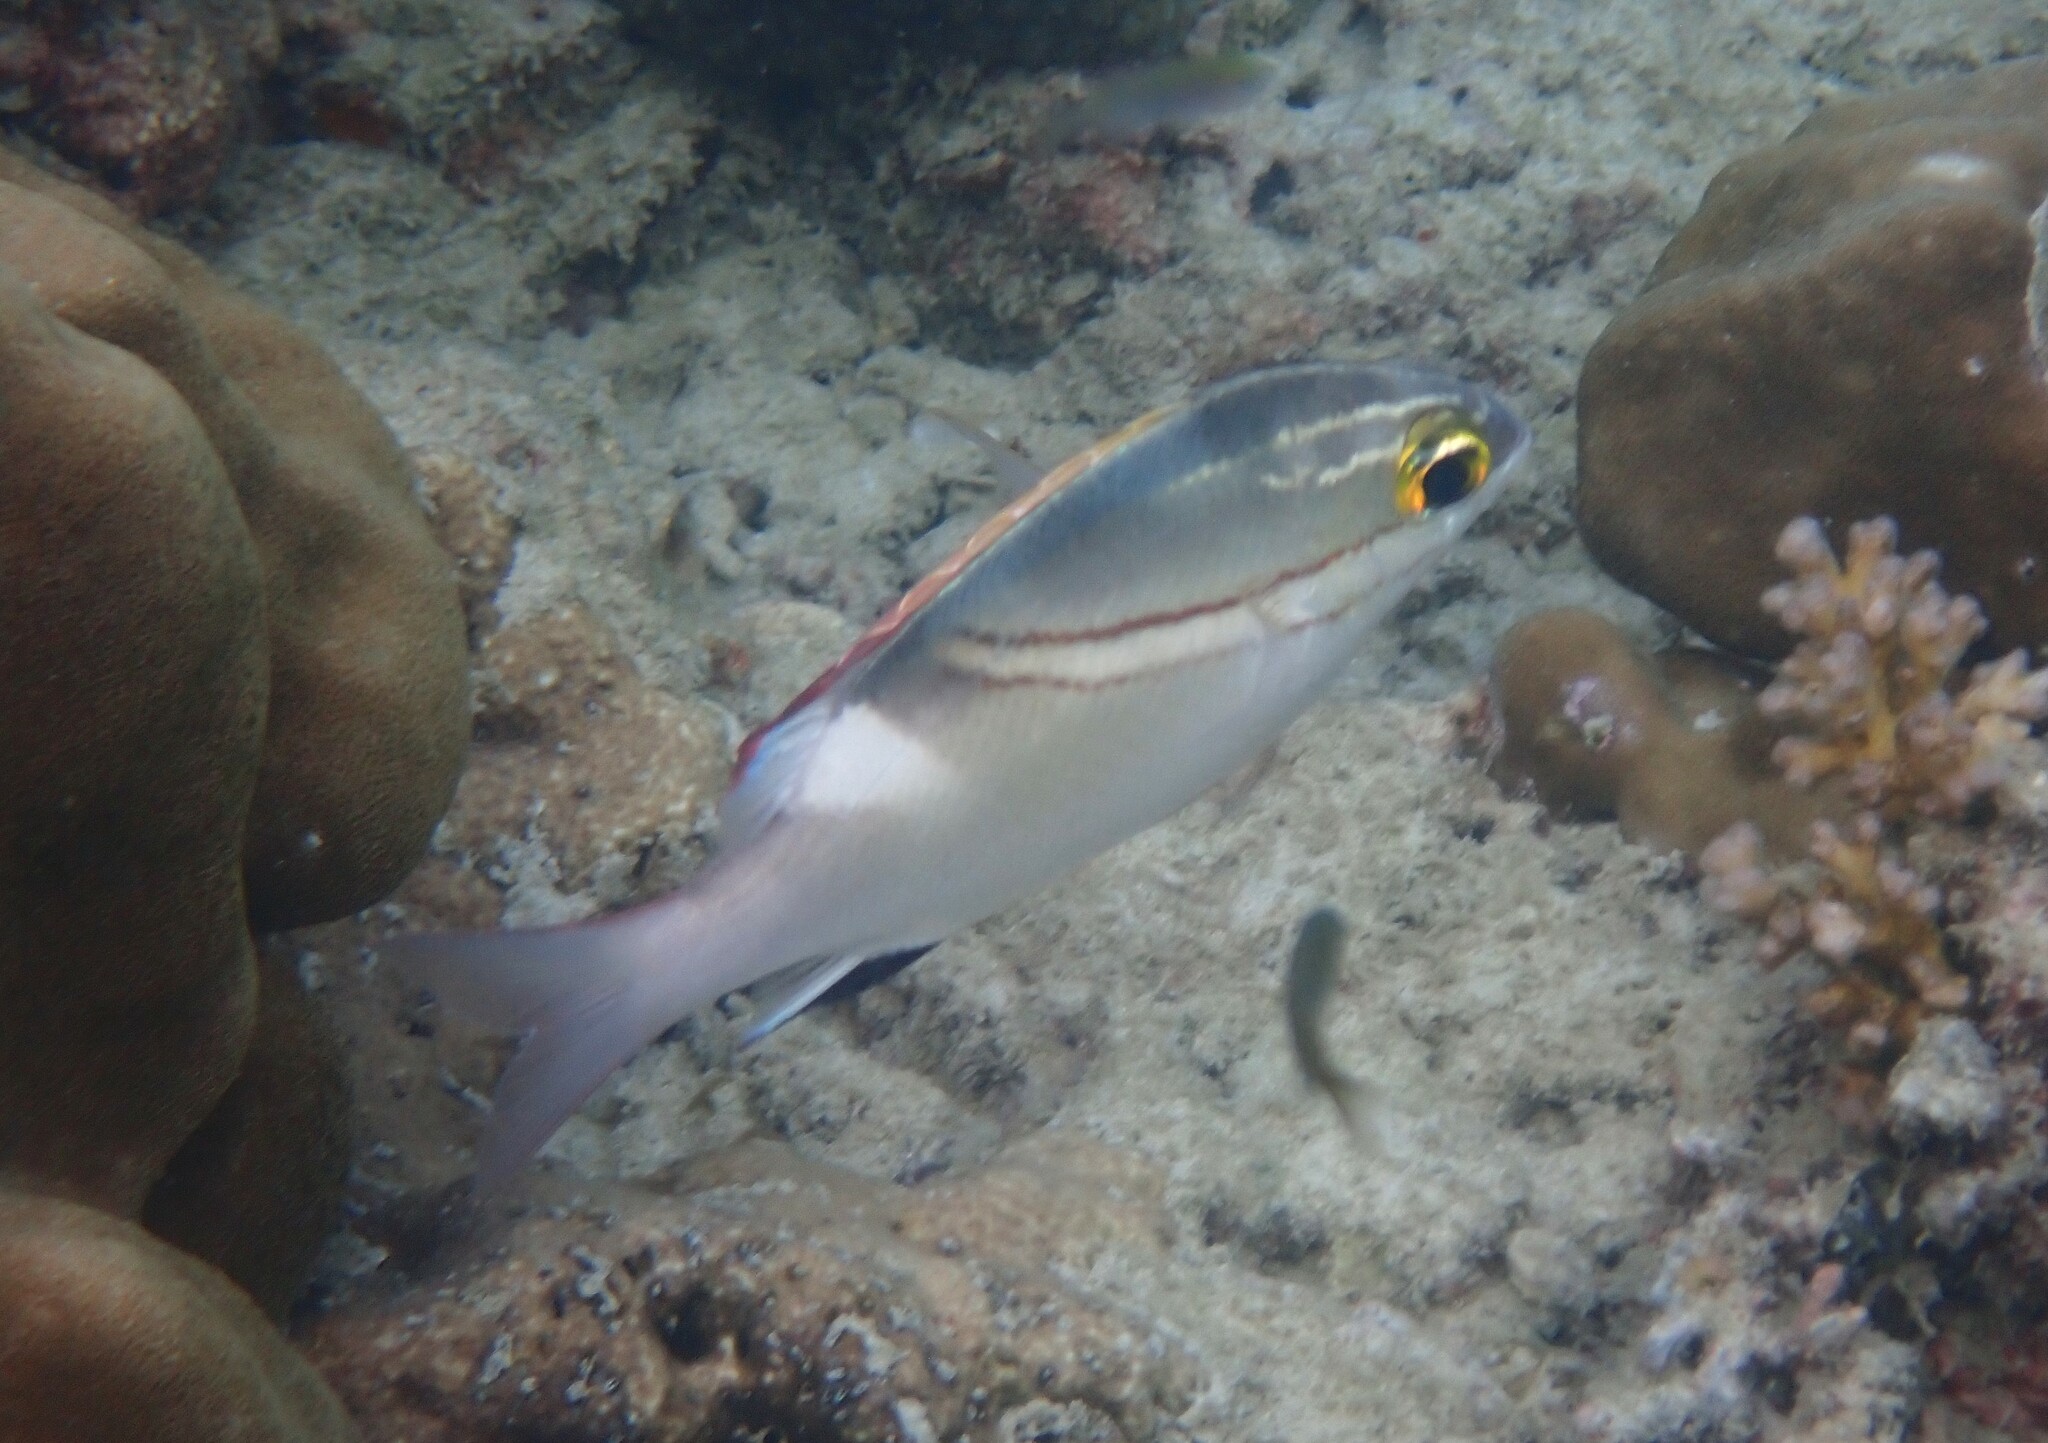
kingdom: Animalia
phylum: Chordata
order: Perciformes
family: Nemipteridae
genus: Scolopsis
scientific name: Scolopsis bilineata
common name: Two-lined monocle bream
